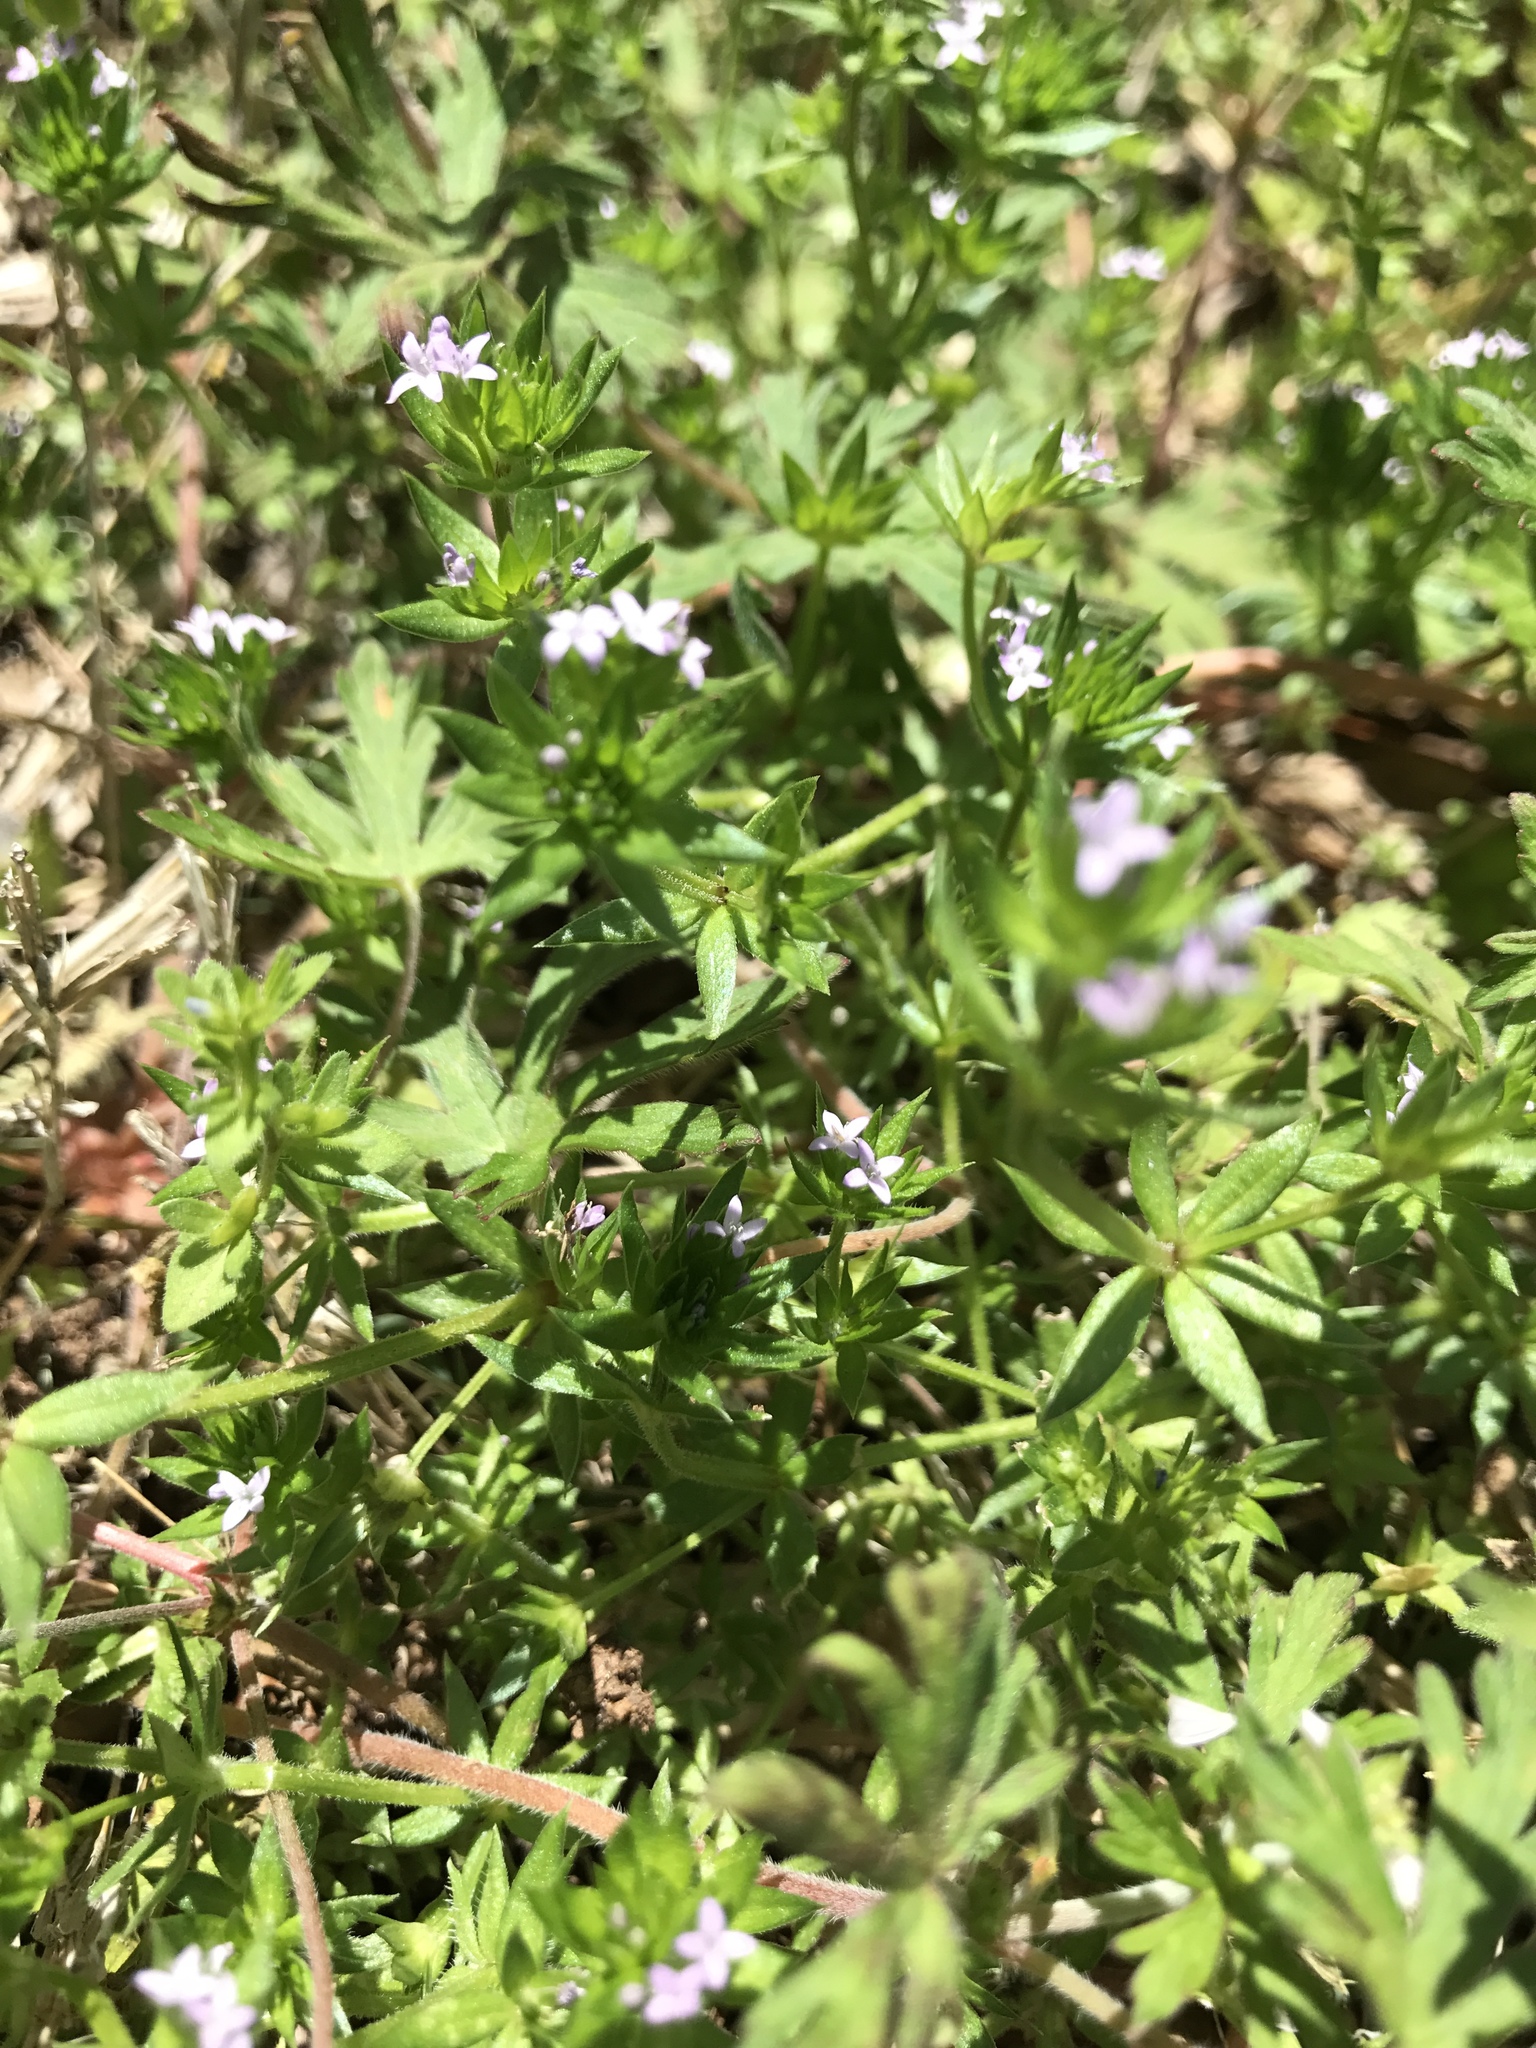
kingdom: Plantae
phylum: Tracheophyta
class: Magnoliopsida
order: Gentianales
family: Rubiaceae
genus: Sherardia
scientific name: Sherardia arvensis
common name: Field madder
